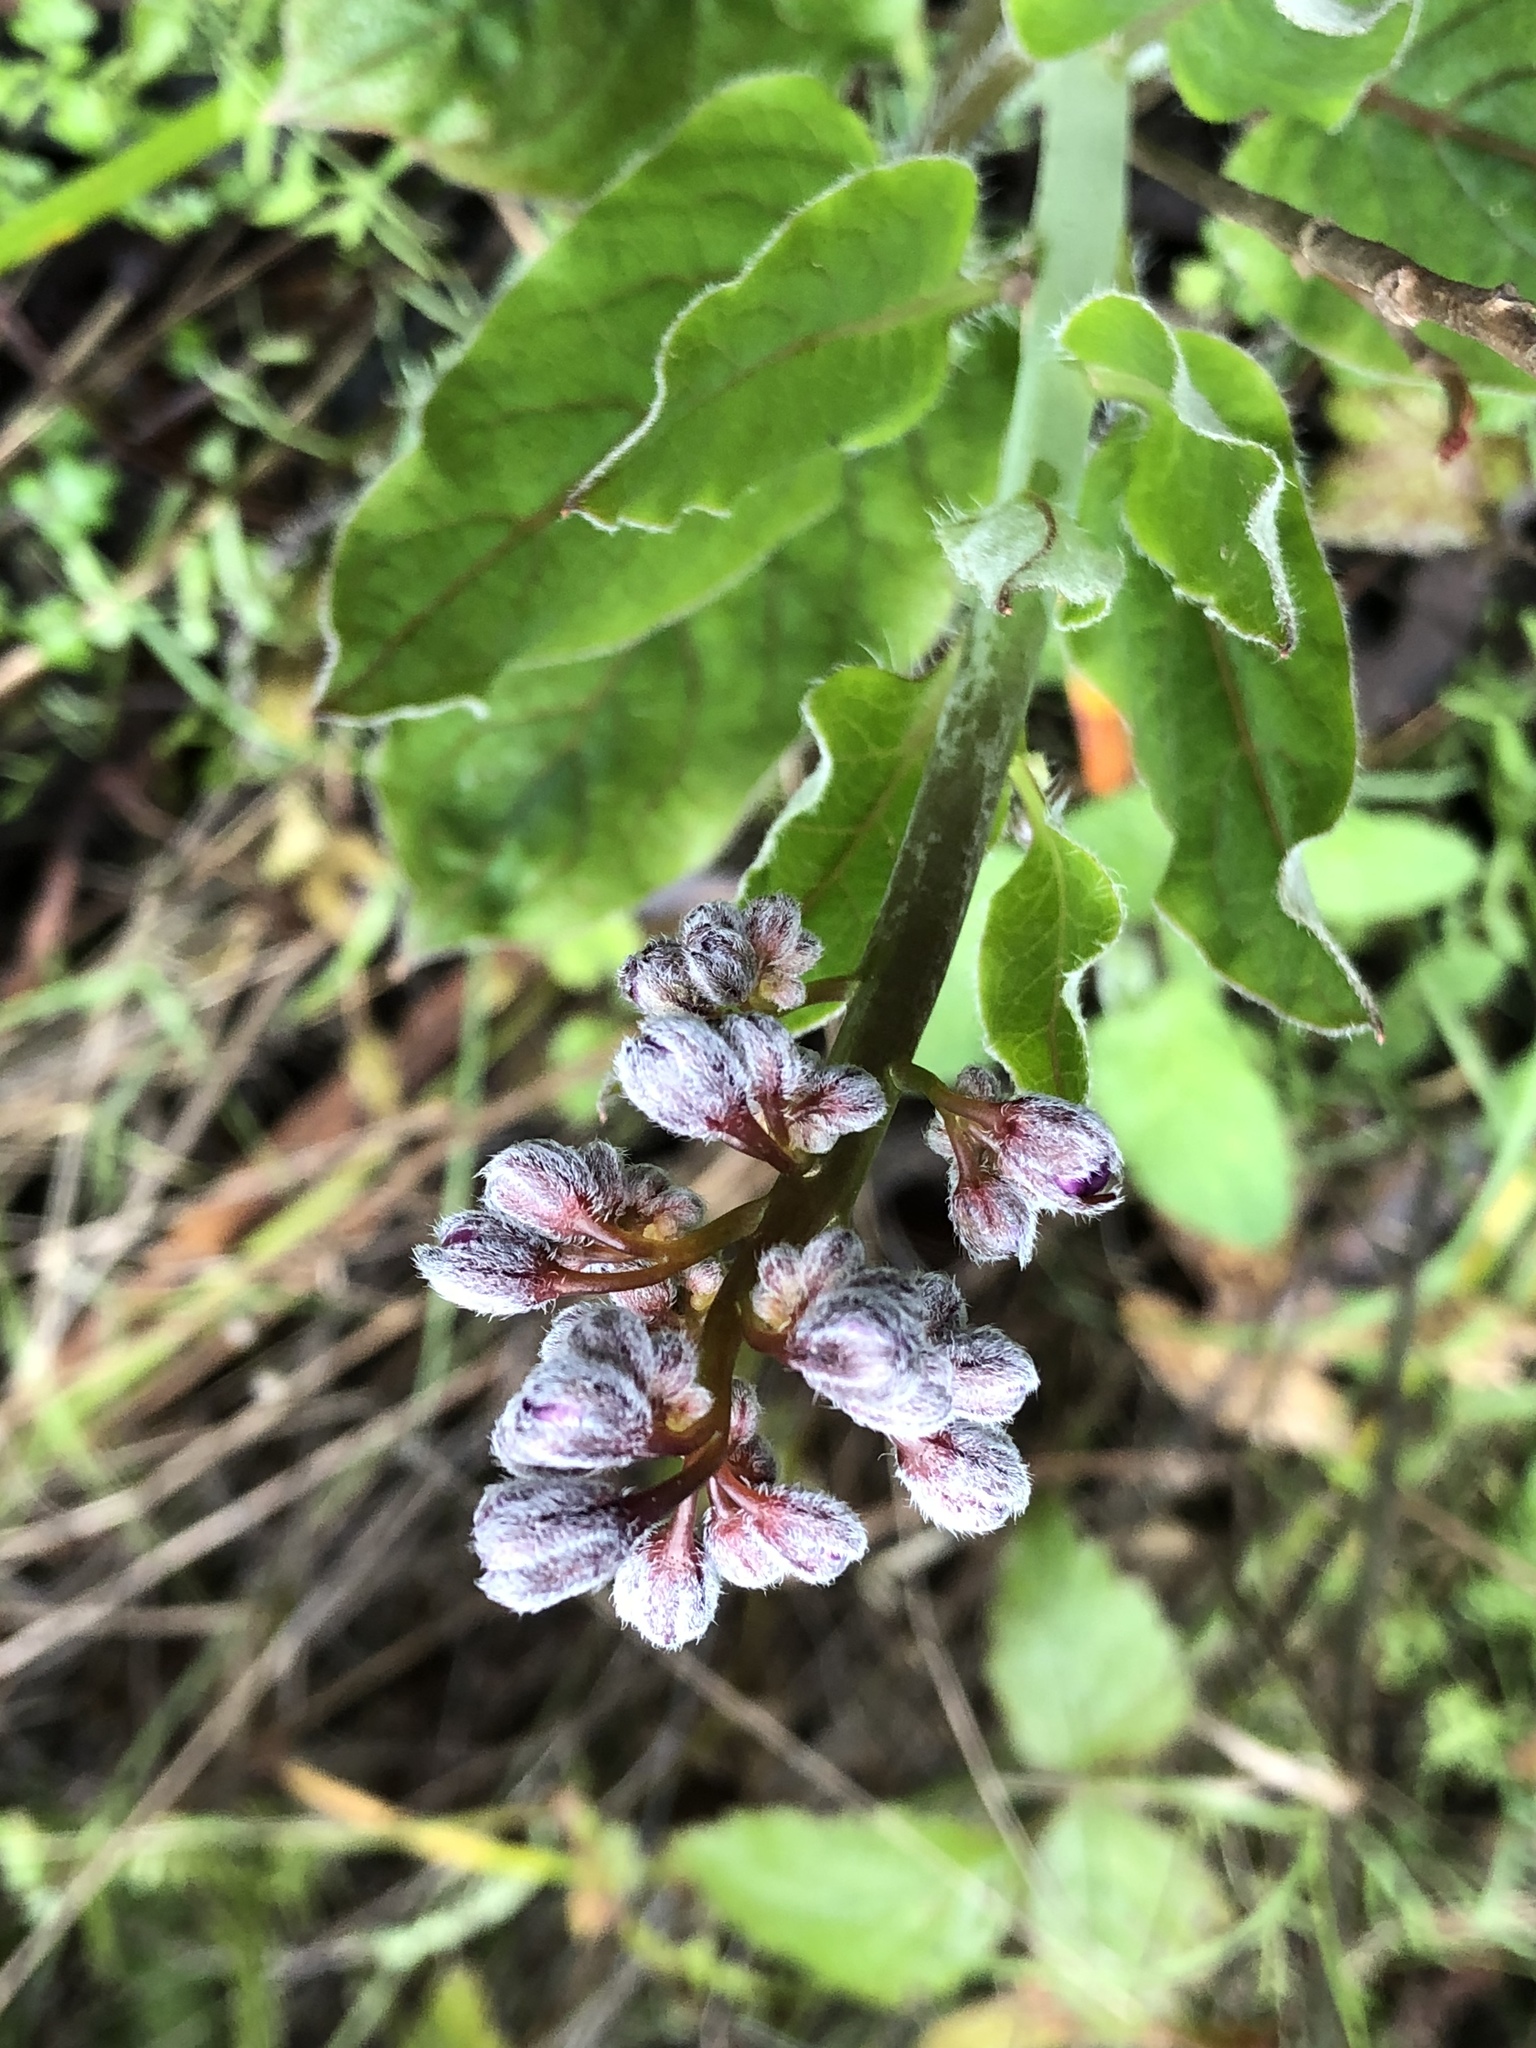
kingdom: Plantae
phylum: Tracheophyta
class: Magnoliopsida
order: Boraginales
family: Boraginaceae
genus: Adelinia
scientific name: Adelinia grande
